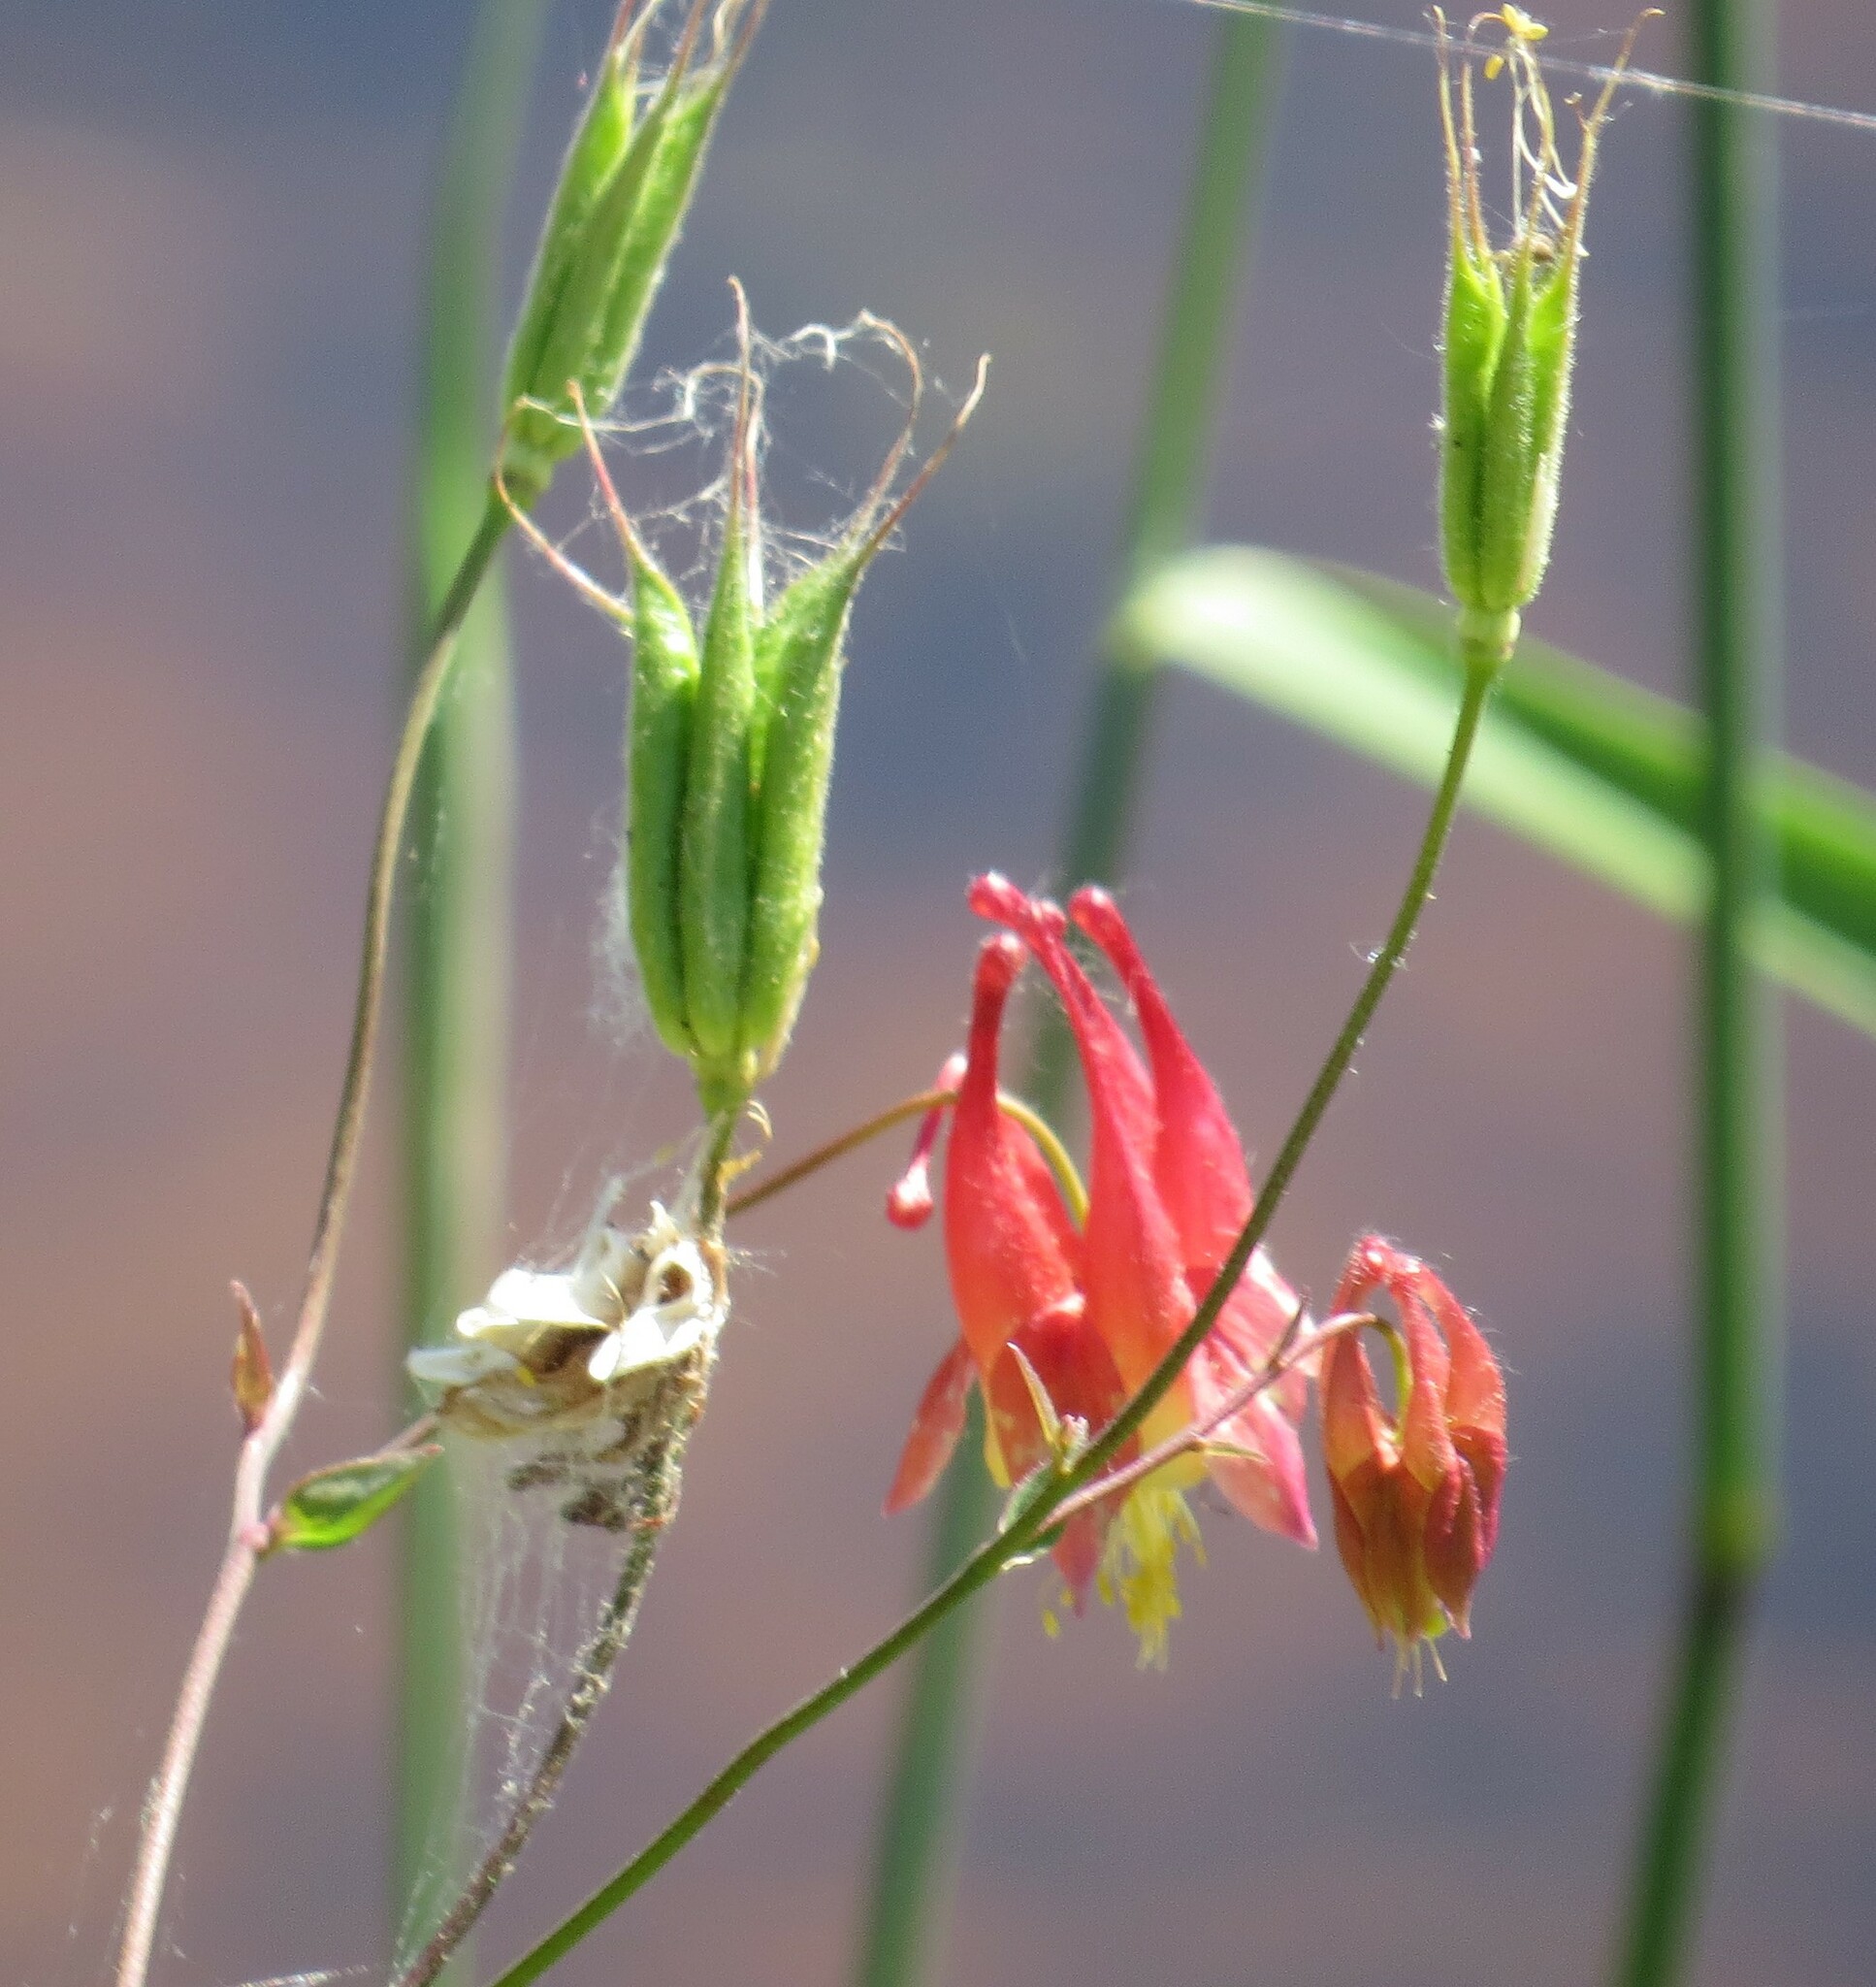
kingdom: Plantae
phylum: Tracheophyta
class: Magnoliopsida
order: Ranunculales
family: Ranunculaceae
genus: Aquilegia
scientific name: Aquilegia canadensis
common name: American columbine
